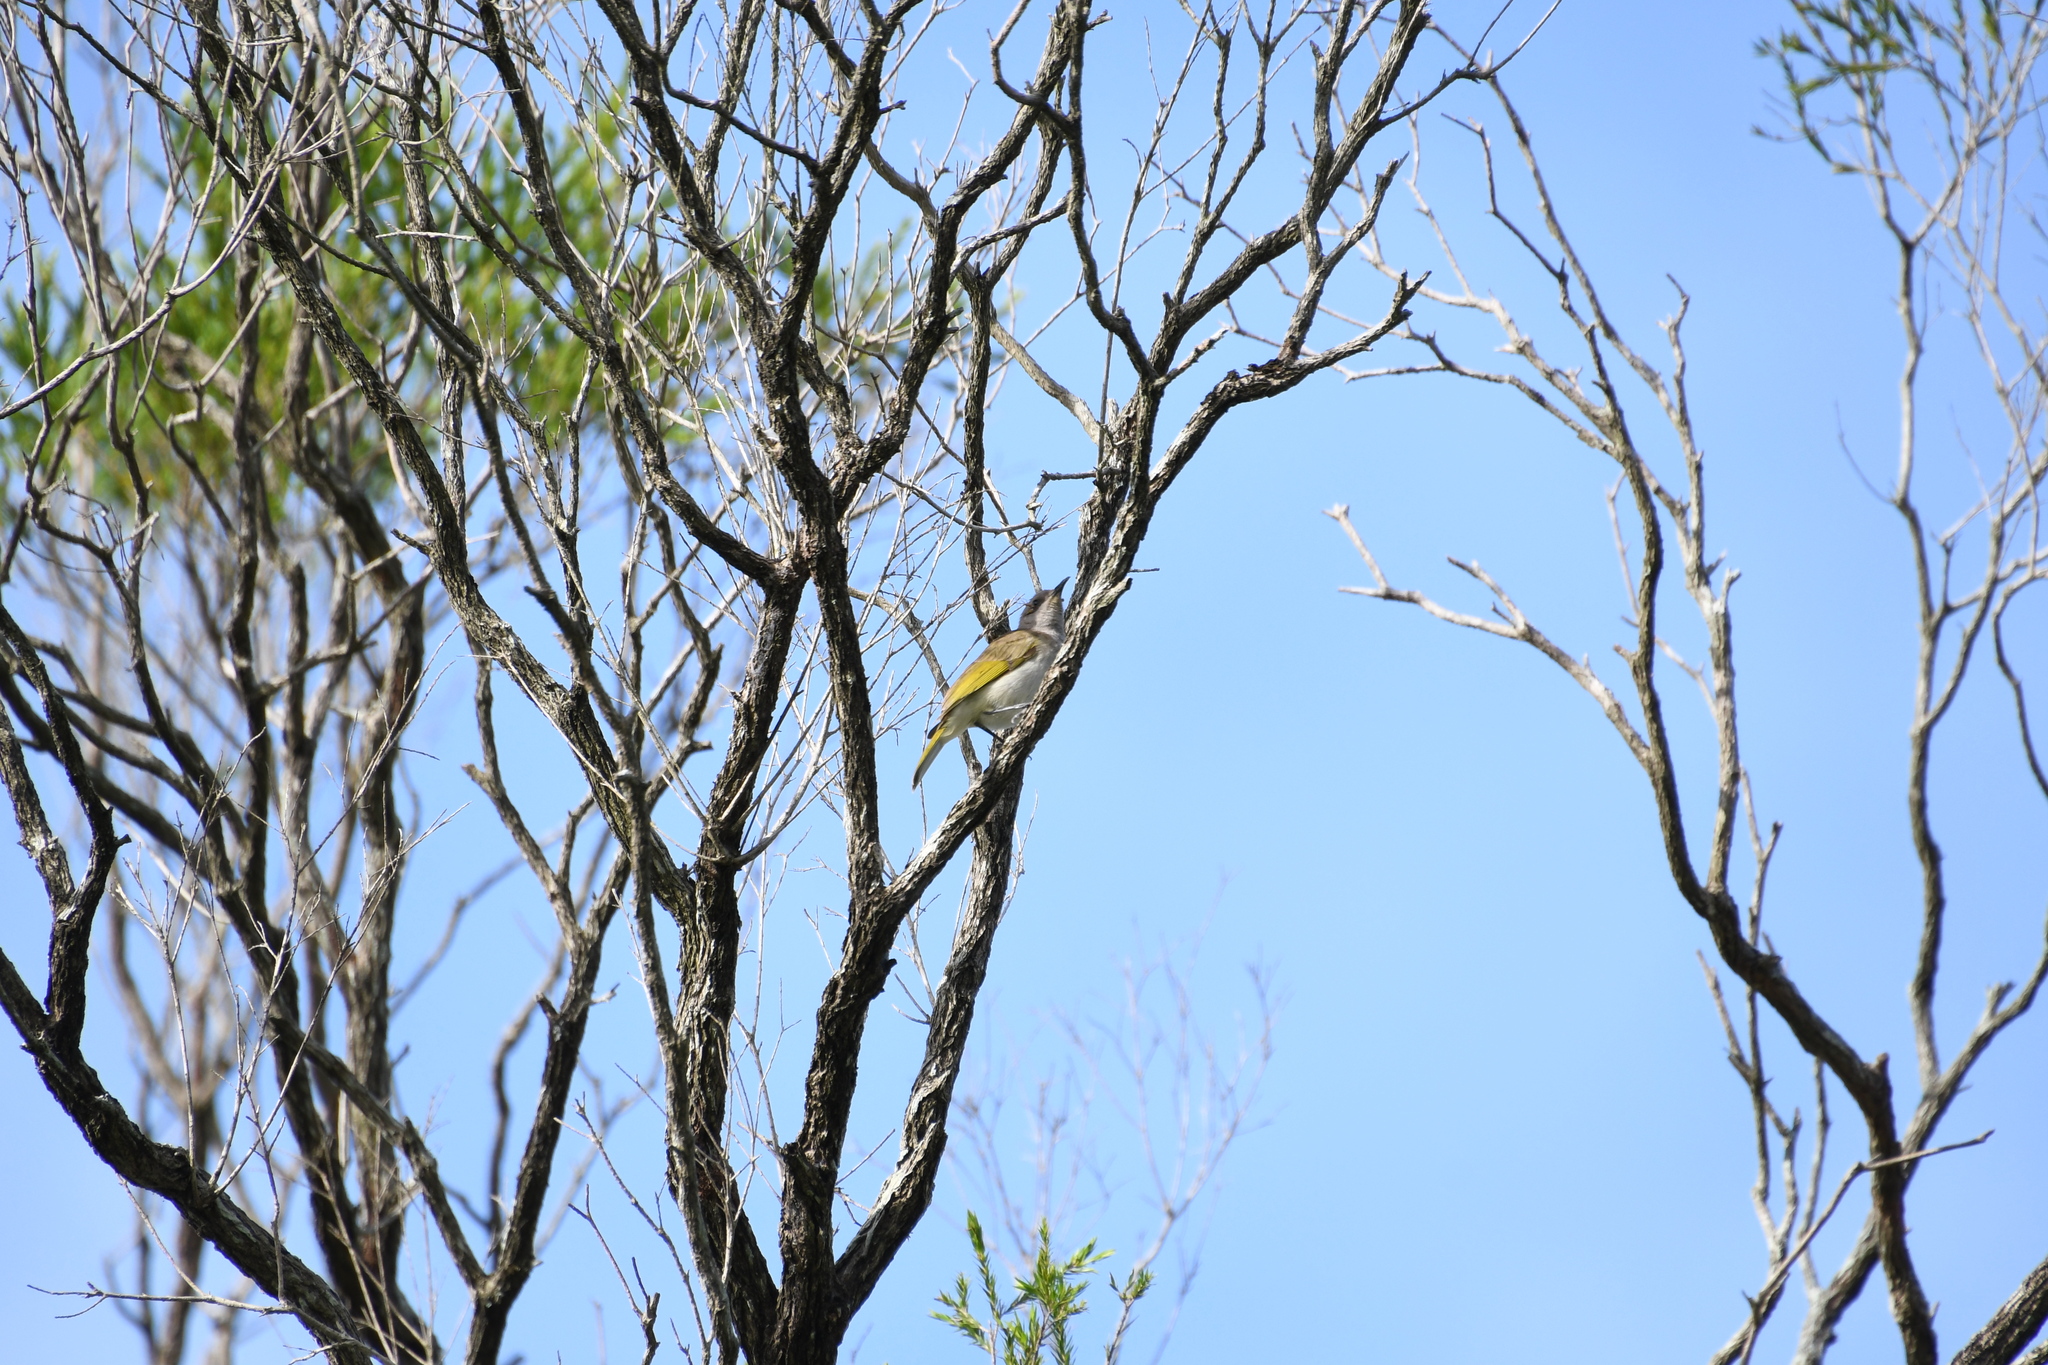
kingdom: Animalia
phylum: Chordata
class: Aves
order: Passeriformes
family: Meliphagidae
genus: Lichmera
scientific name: Lichmera indistincta
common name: Brown honeyeater
